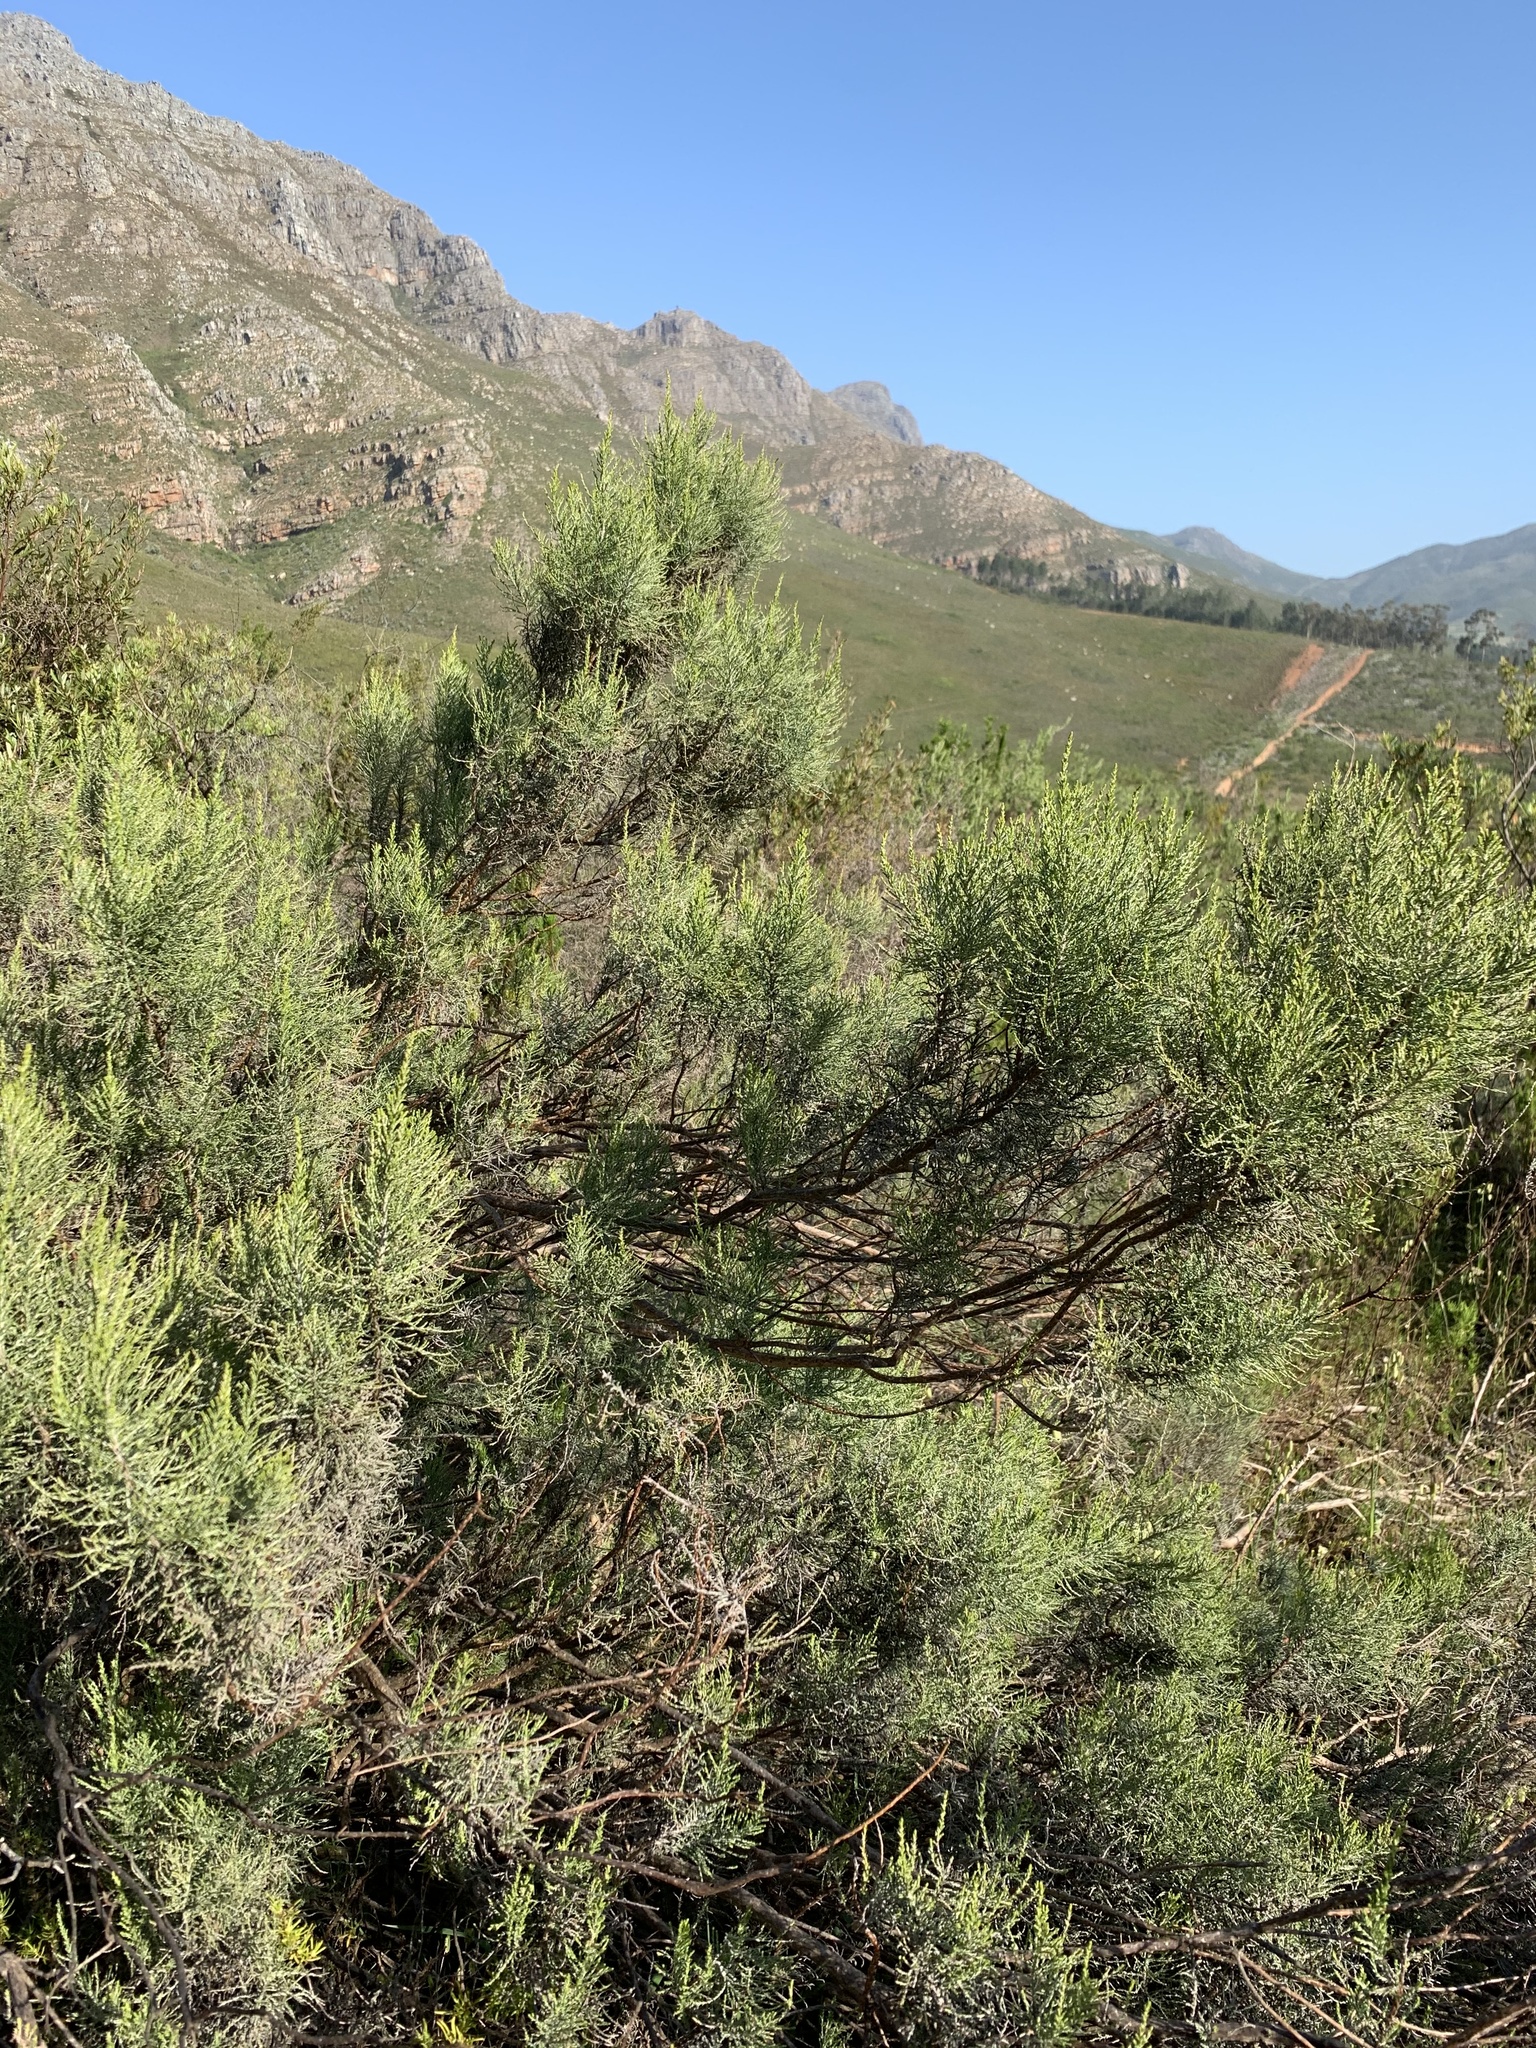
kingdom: Plantae
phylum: Tracheophyta
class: Magnoliopsida
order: Asterales
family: Asteraceae
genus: Dicerothamnus
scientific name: Dicerothamnus rhinocerotis
